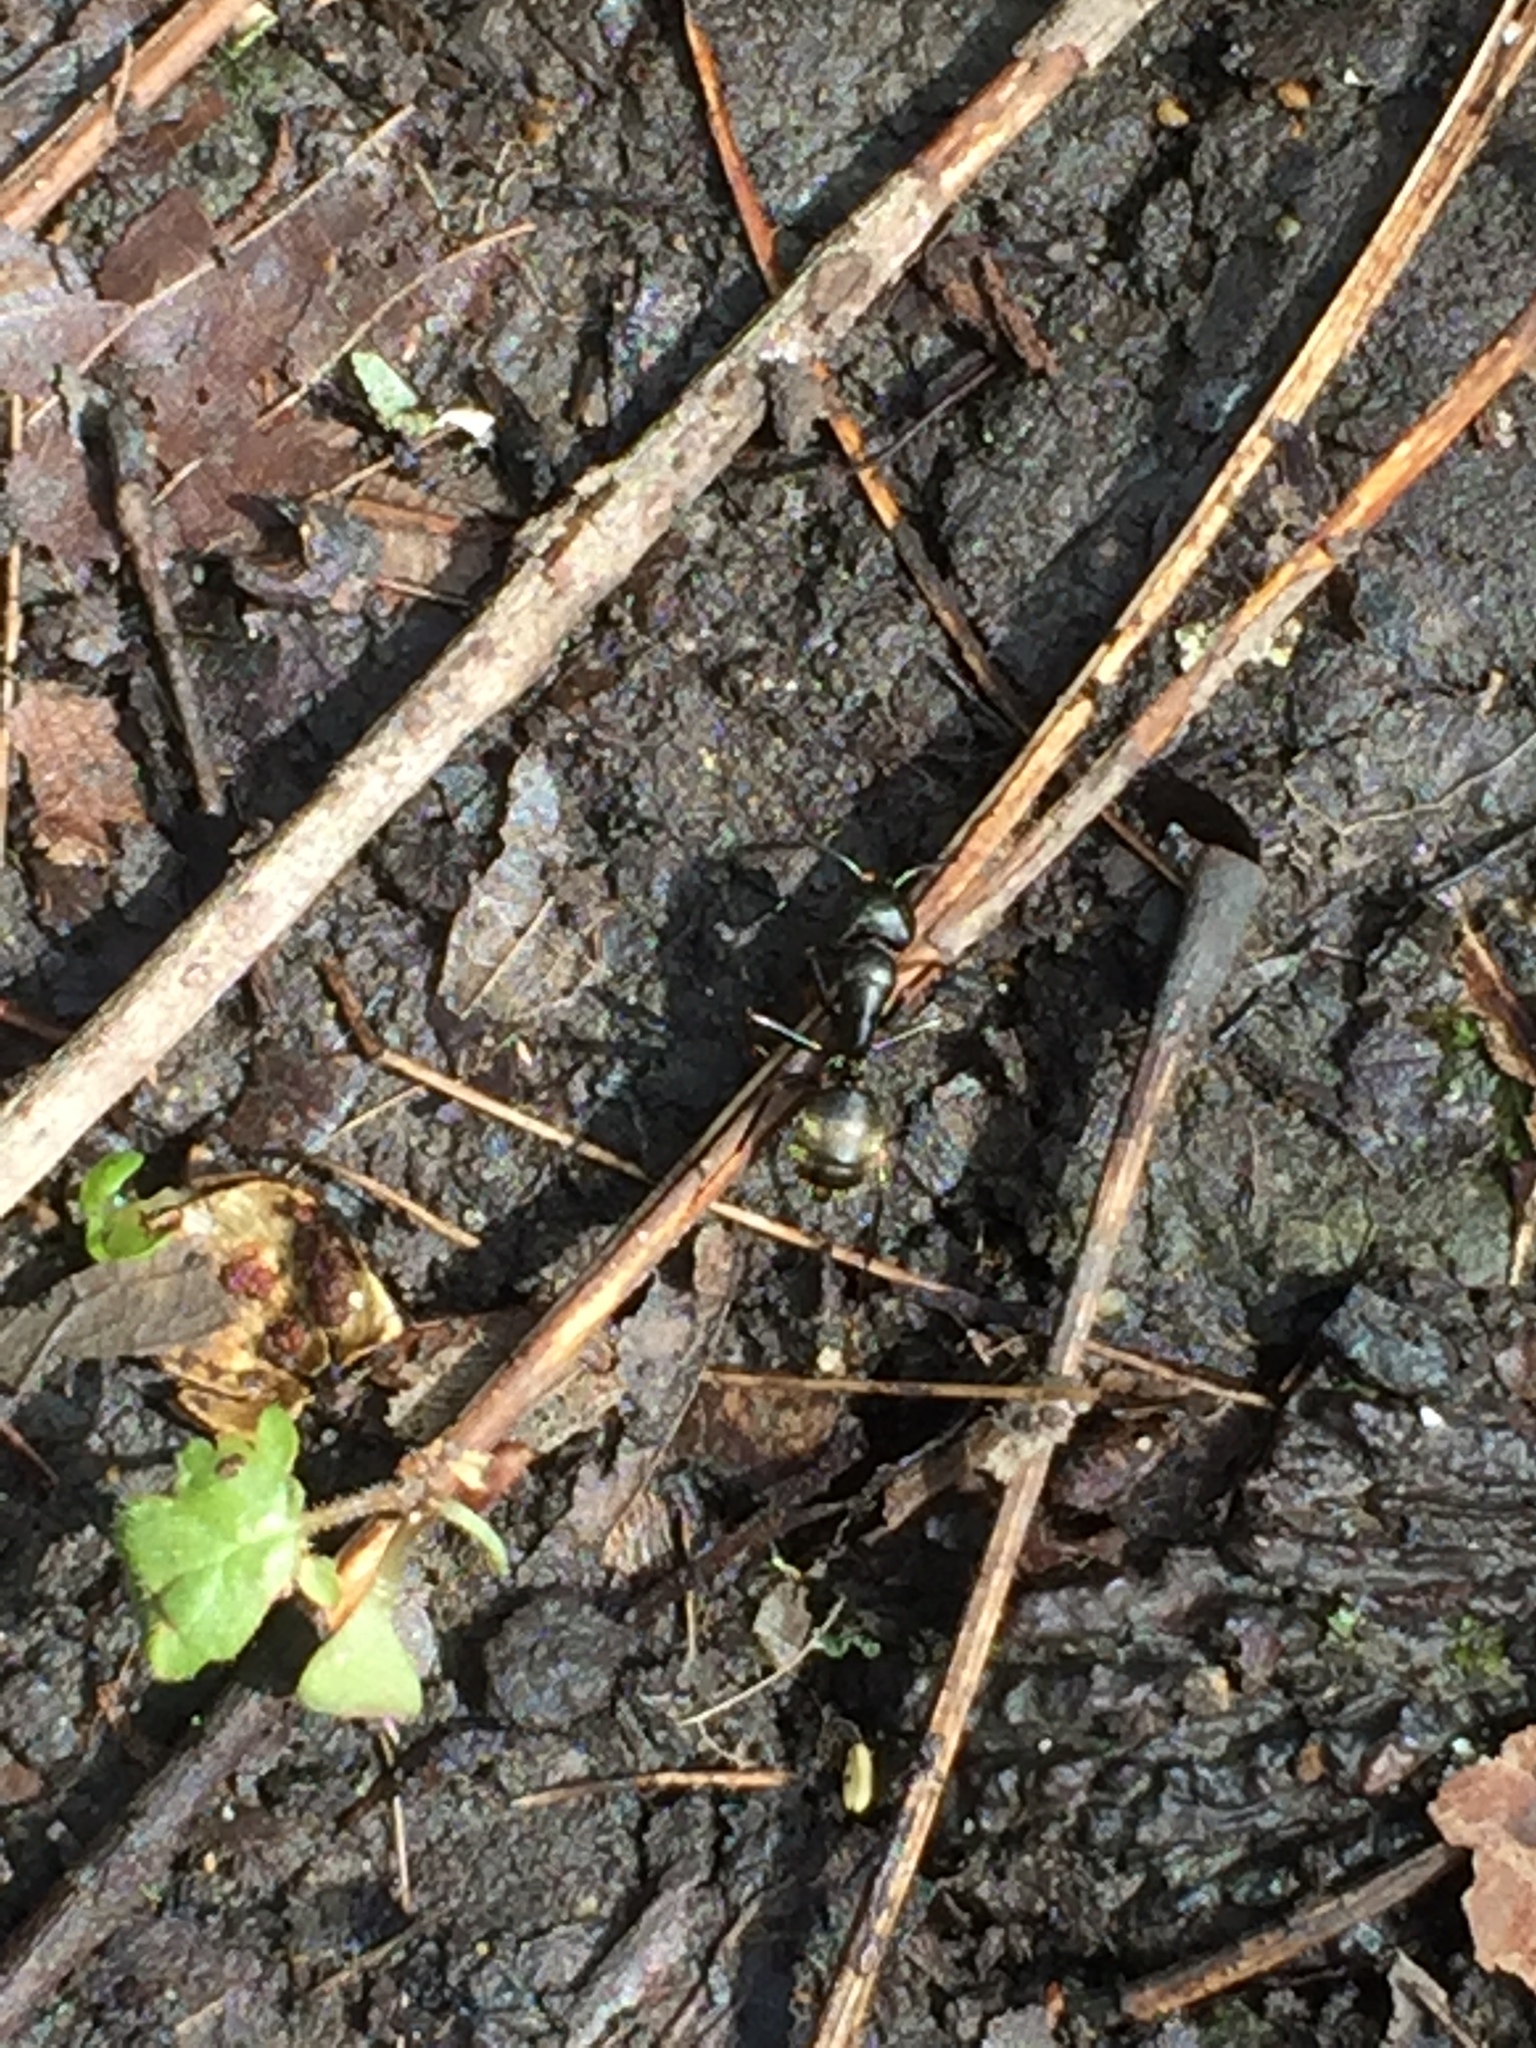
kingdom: Animalia
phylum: Arthropoda
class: Insecta
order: Hymenoptera
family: Formicidae
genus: Camponotus
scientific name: Camponotus pennsylvanicus
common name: Black carpenter ant
